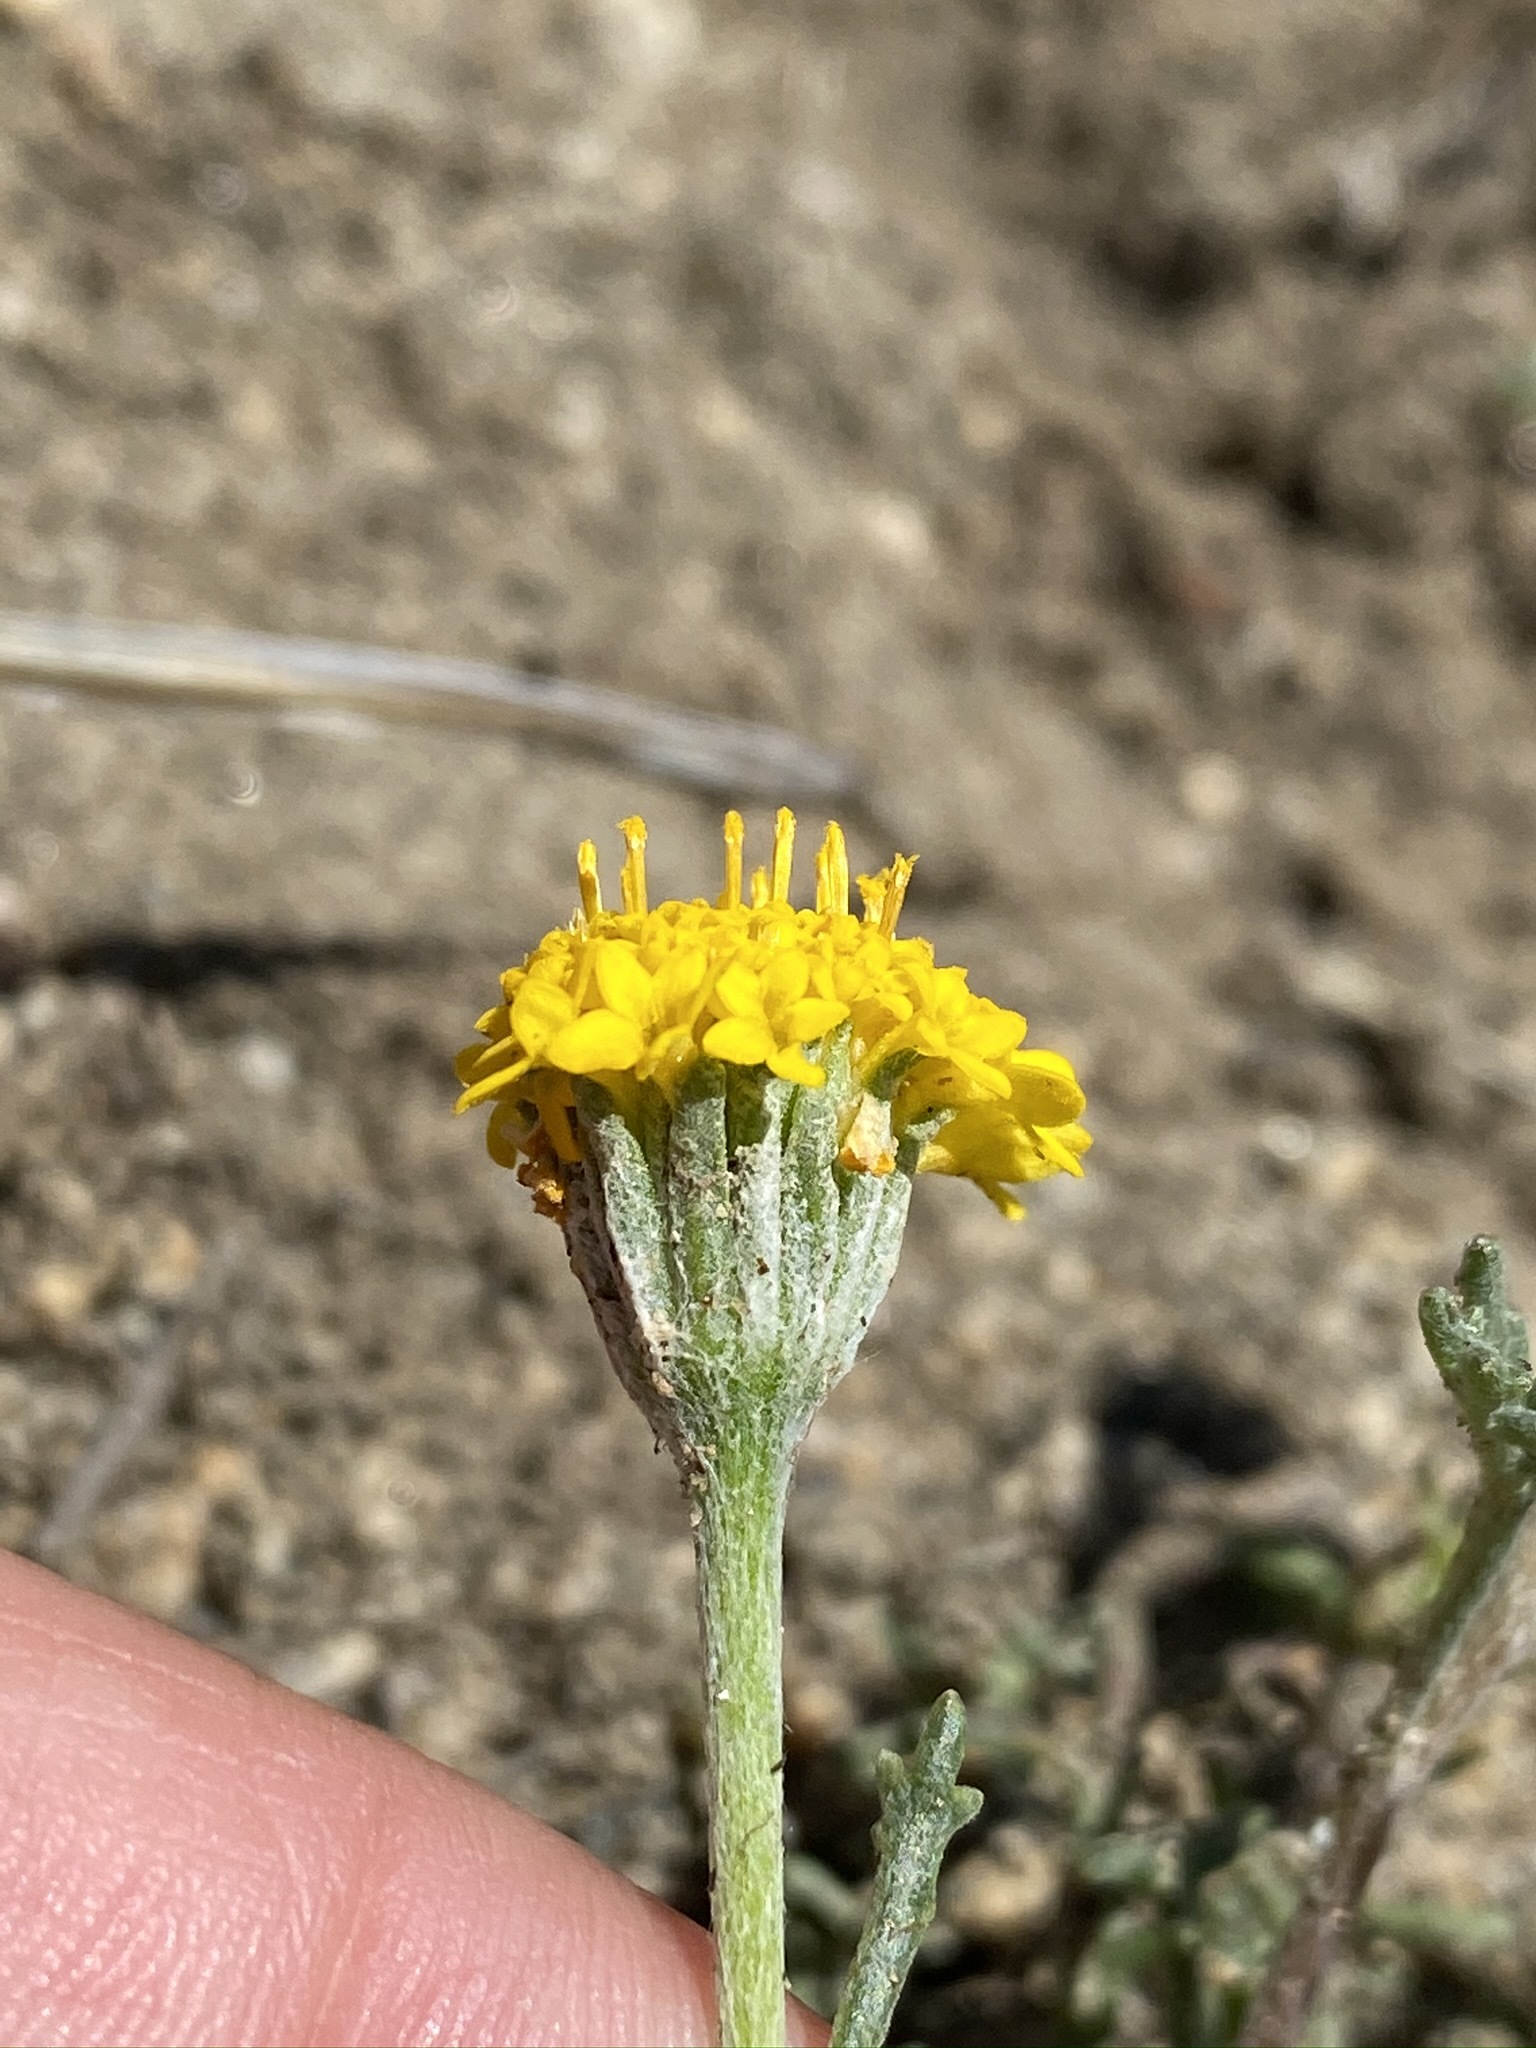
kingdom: Plantae
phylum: Tracheophyta
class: Magnoliopsida
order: Asterales
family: Asteraceae
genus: Chaenactis
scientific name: Chaenactis glabriuscula
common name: Yellow pincushion
